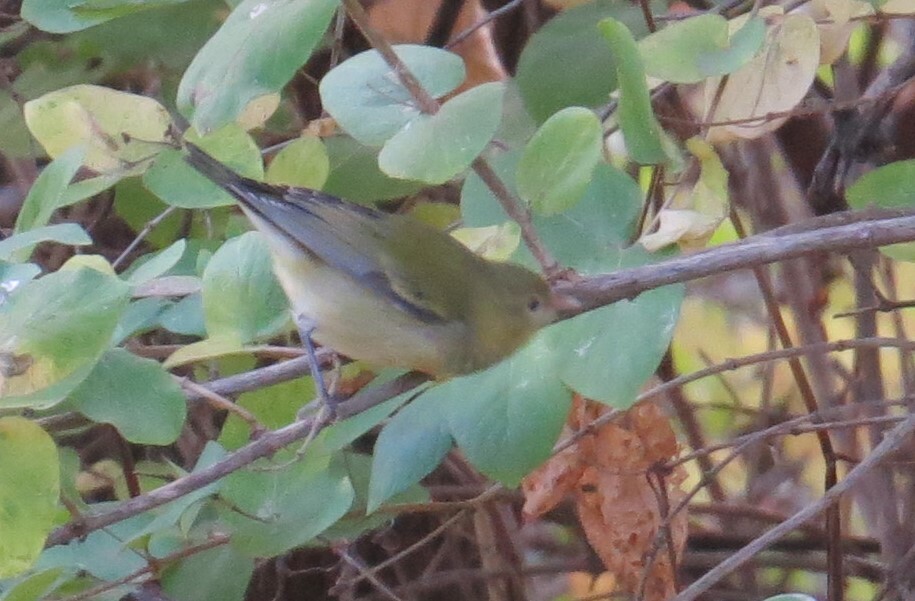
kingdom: Animalia
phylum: Chordata
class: Aves
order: Passeriformes
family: Parulidae
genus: Leiothlypis
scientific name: Leiothlypis peregrina
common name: Tennessee warbler
